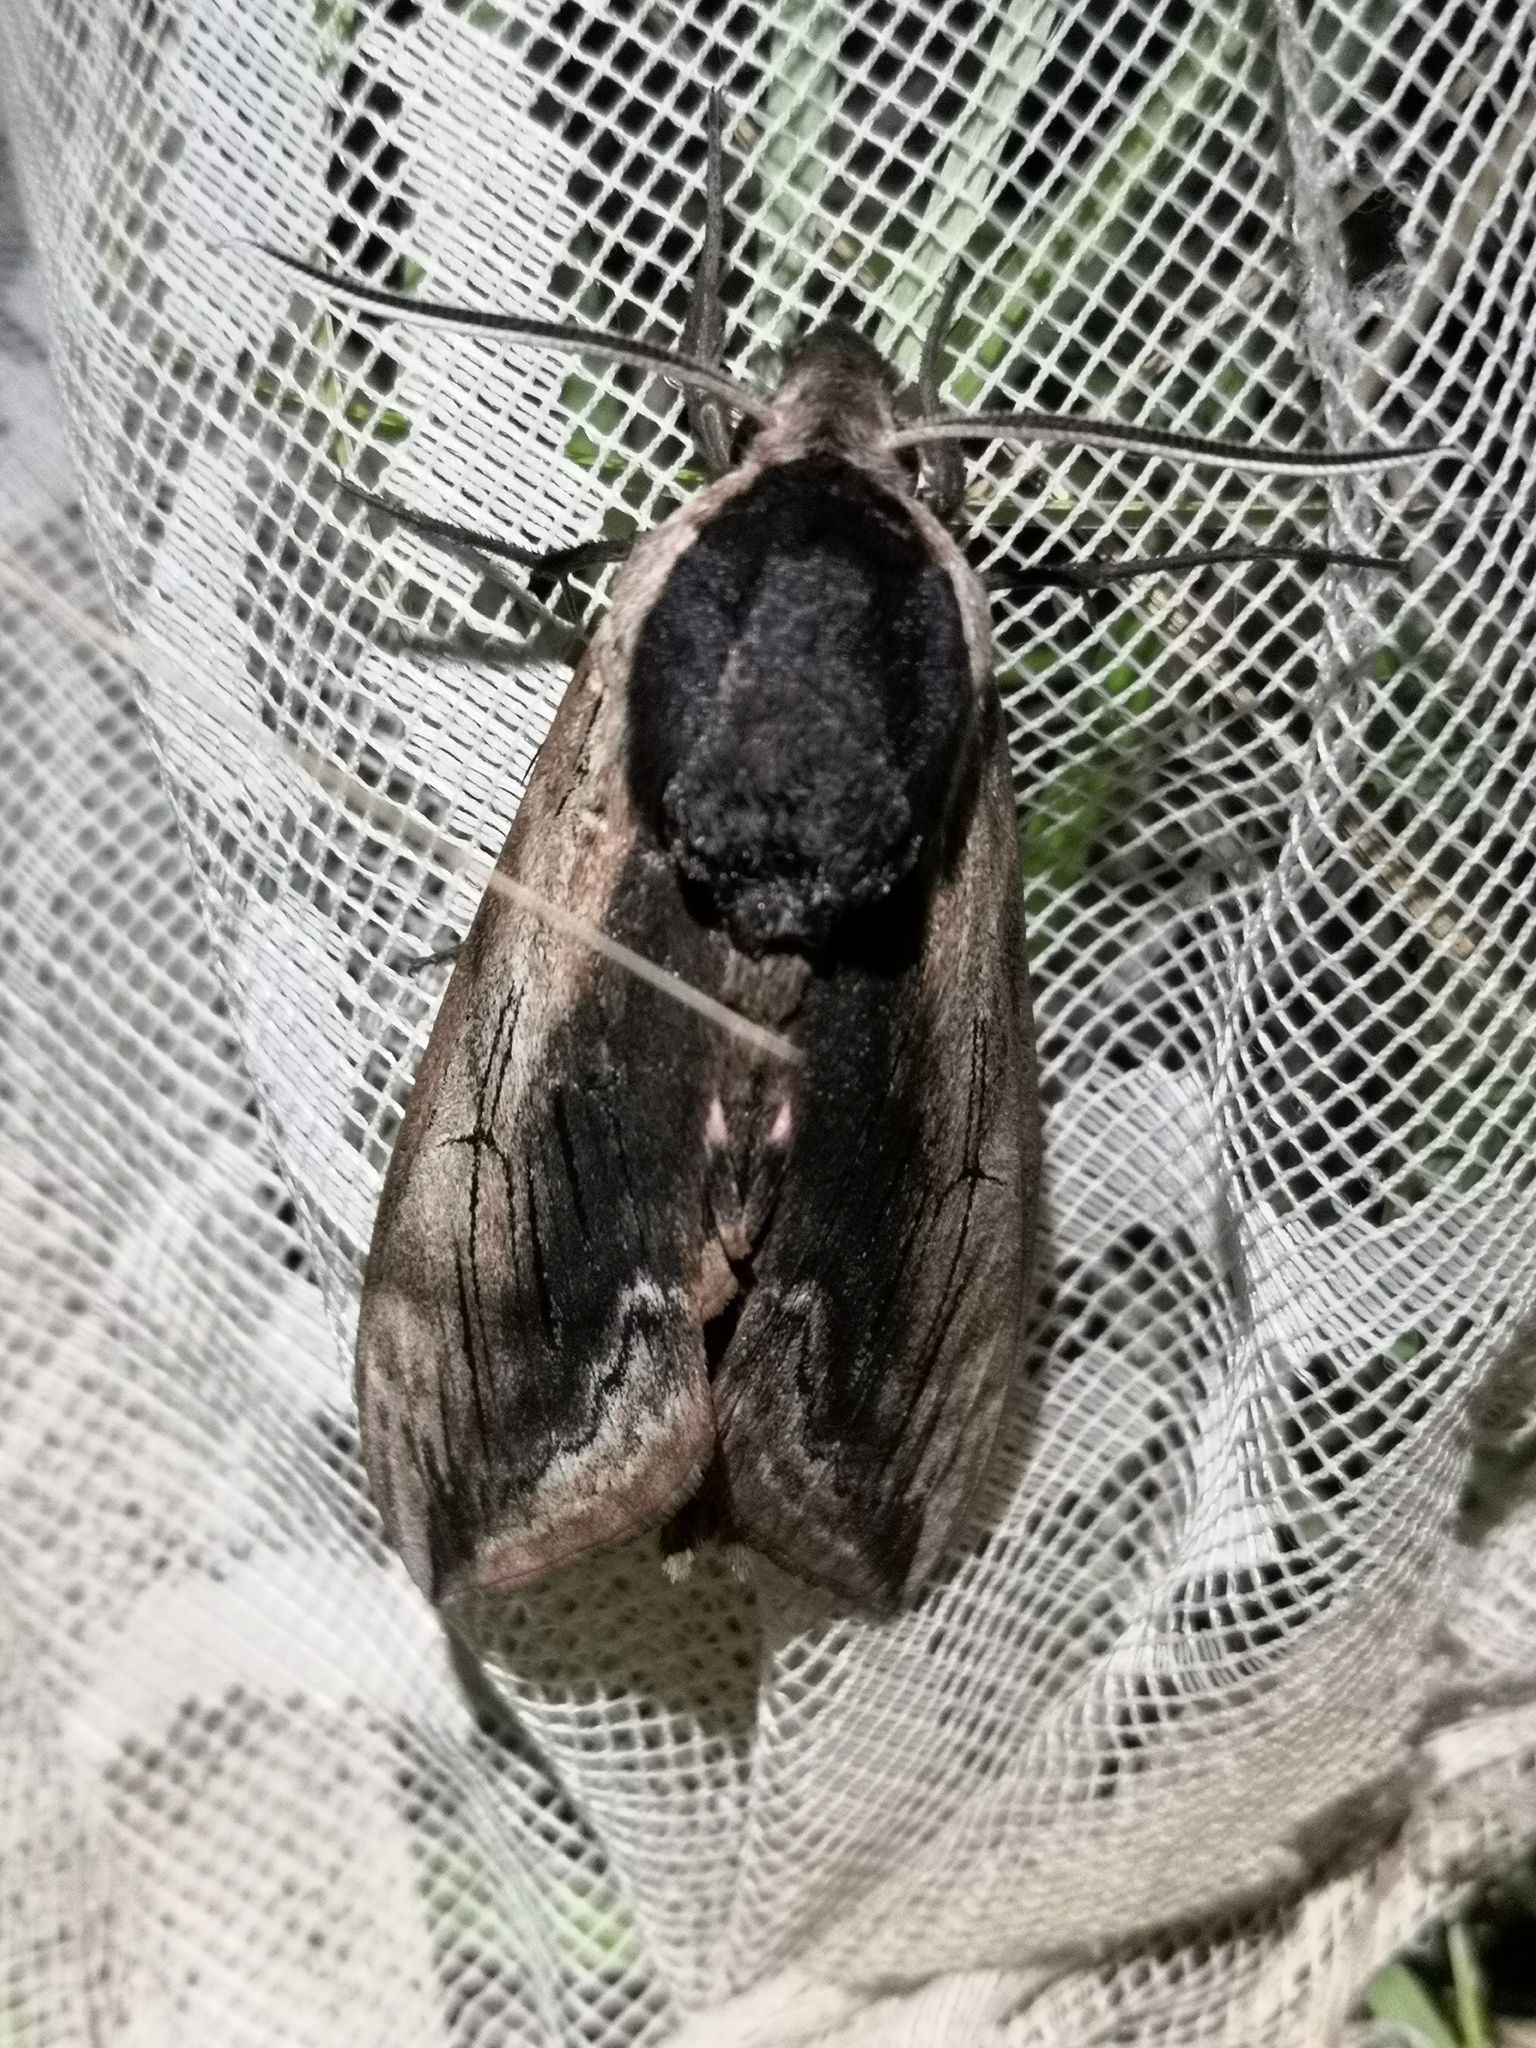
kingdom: Animalia
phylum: Arthropoda
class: Insecta
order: Lepidoptera
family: Sphingidae
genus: Sphinx
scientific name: Sphinx ligustri
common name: Privet hawk-moth
